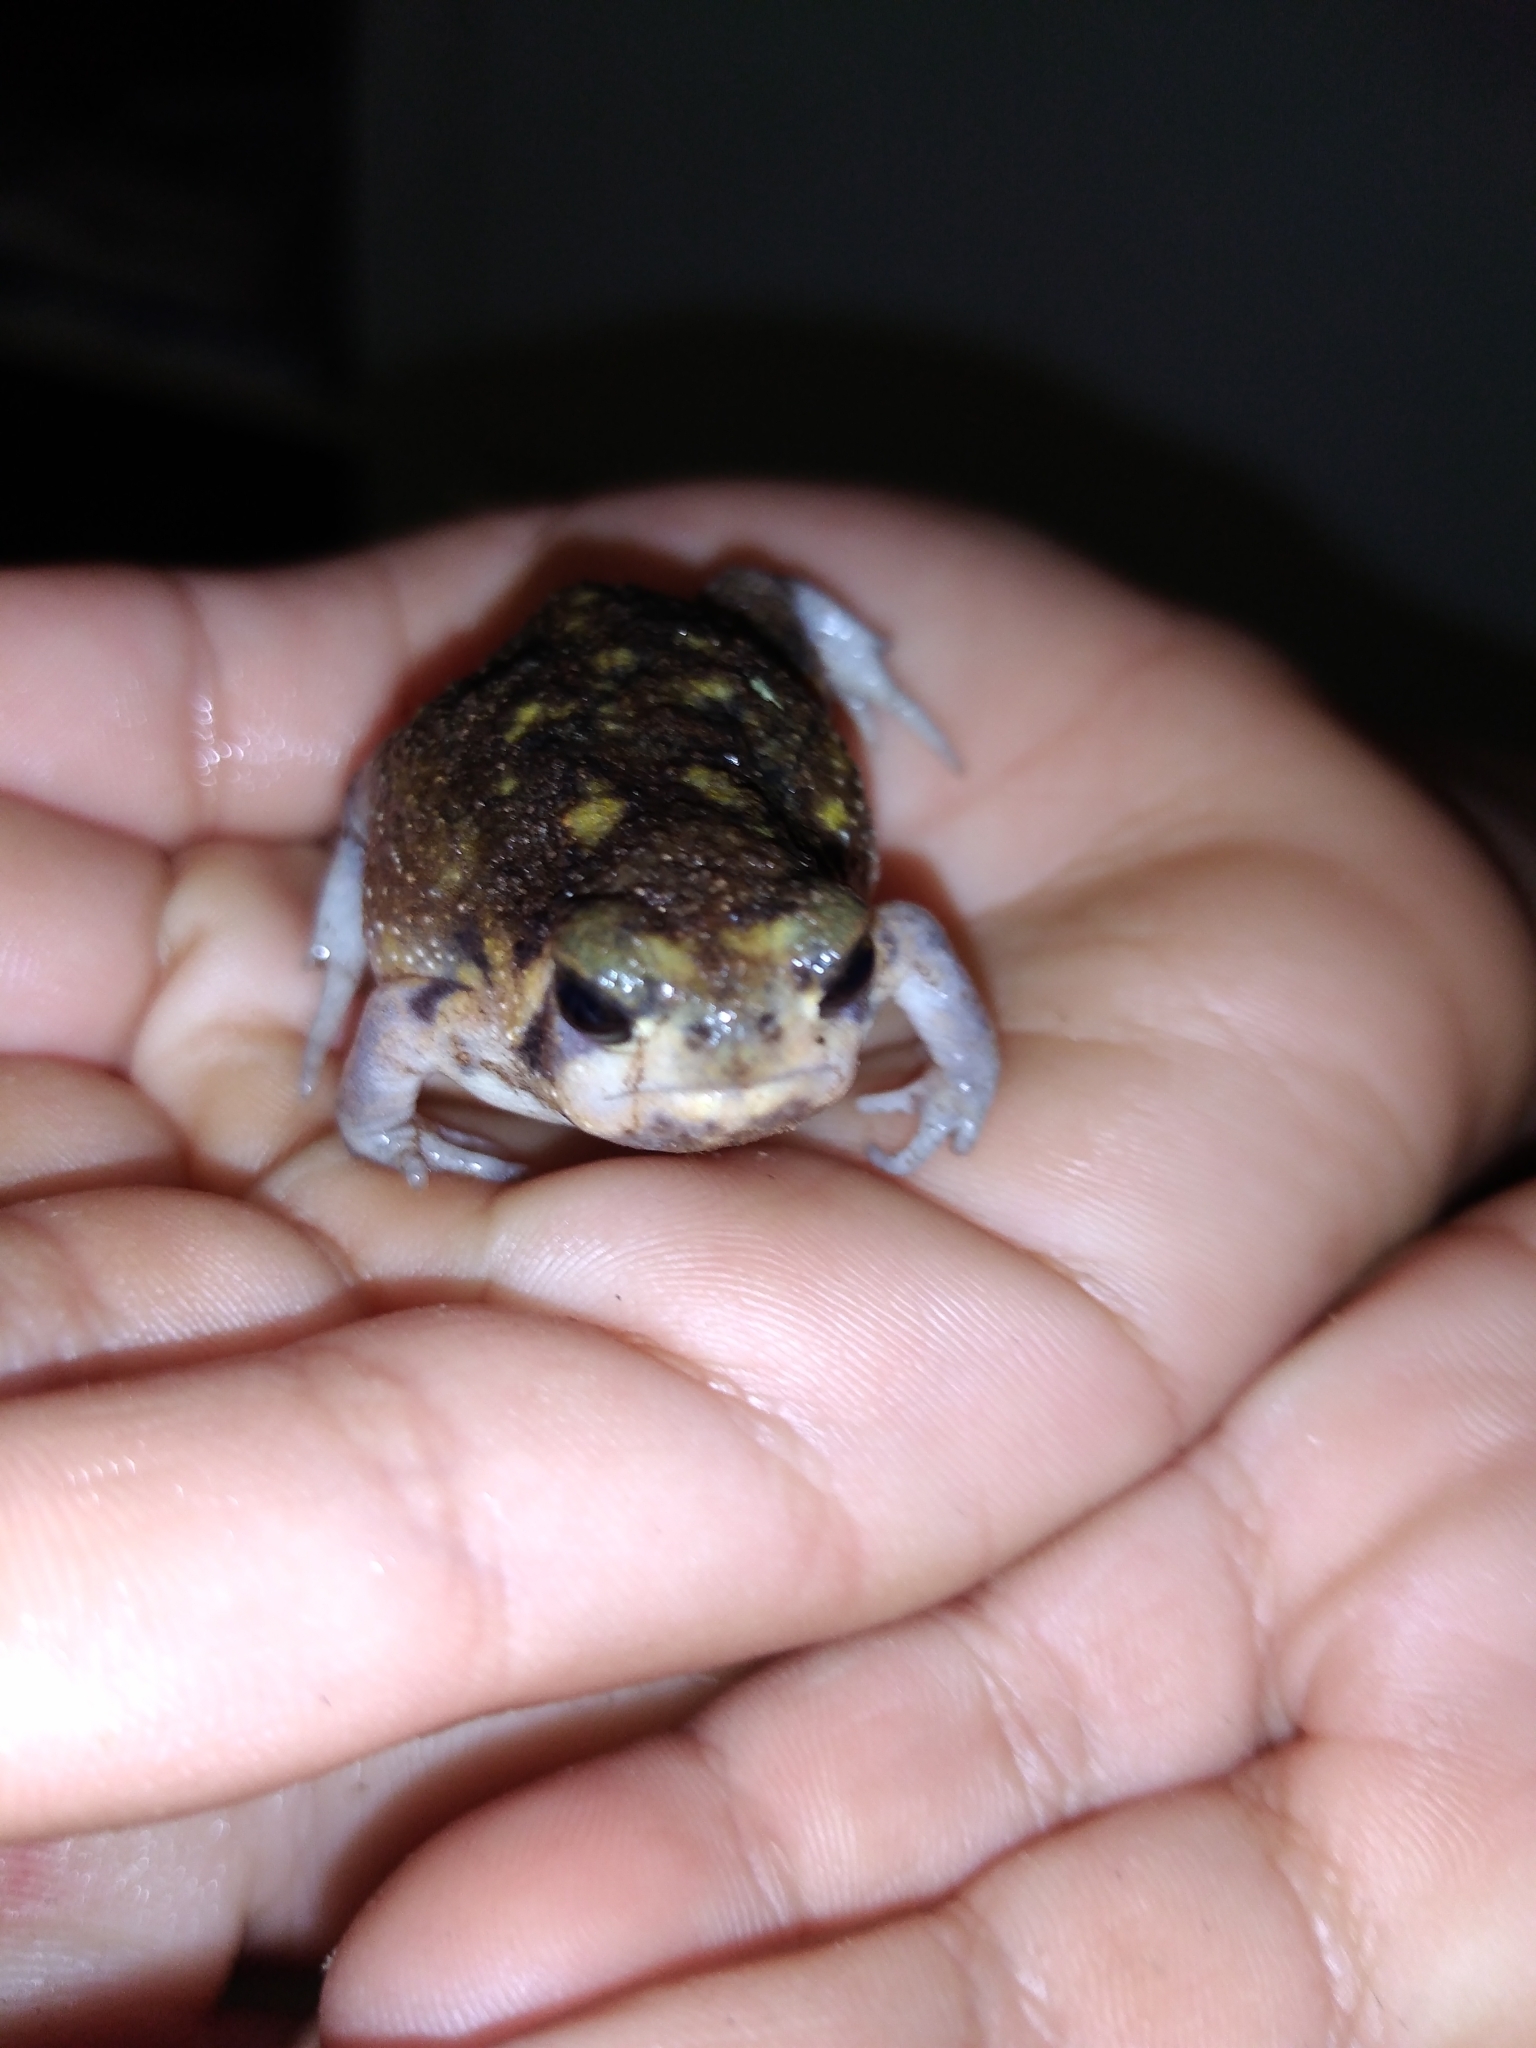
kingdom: Animalia
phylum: Chordata
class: Amphibia
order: Anura
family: Brevicipitidae
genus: Breviceps
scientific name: Breviceps adspersus
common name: Common rain frog
